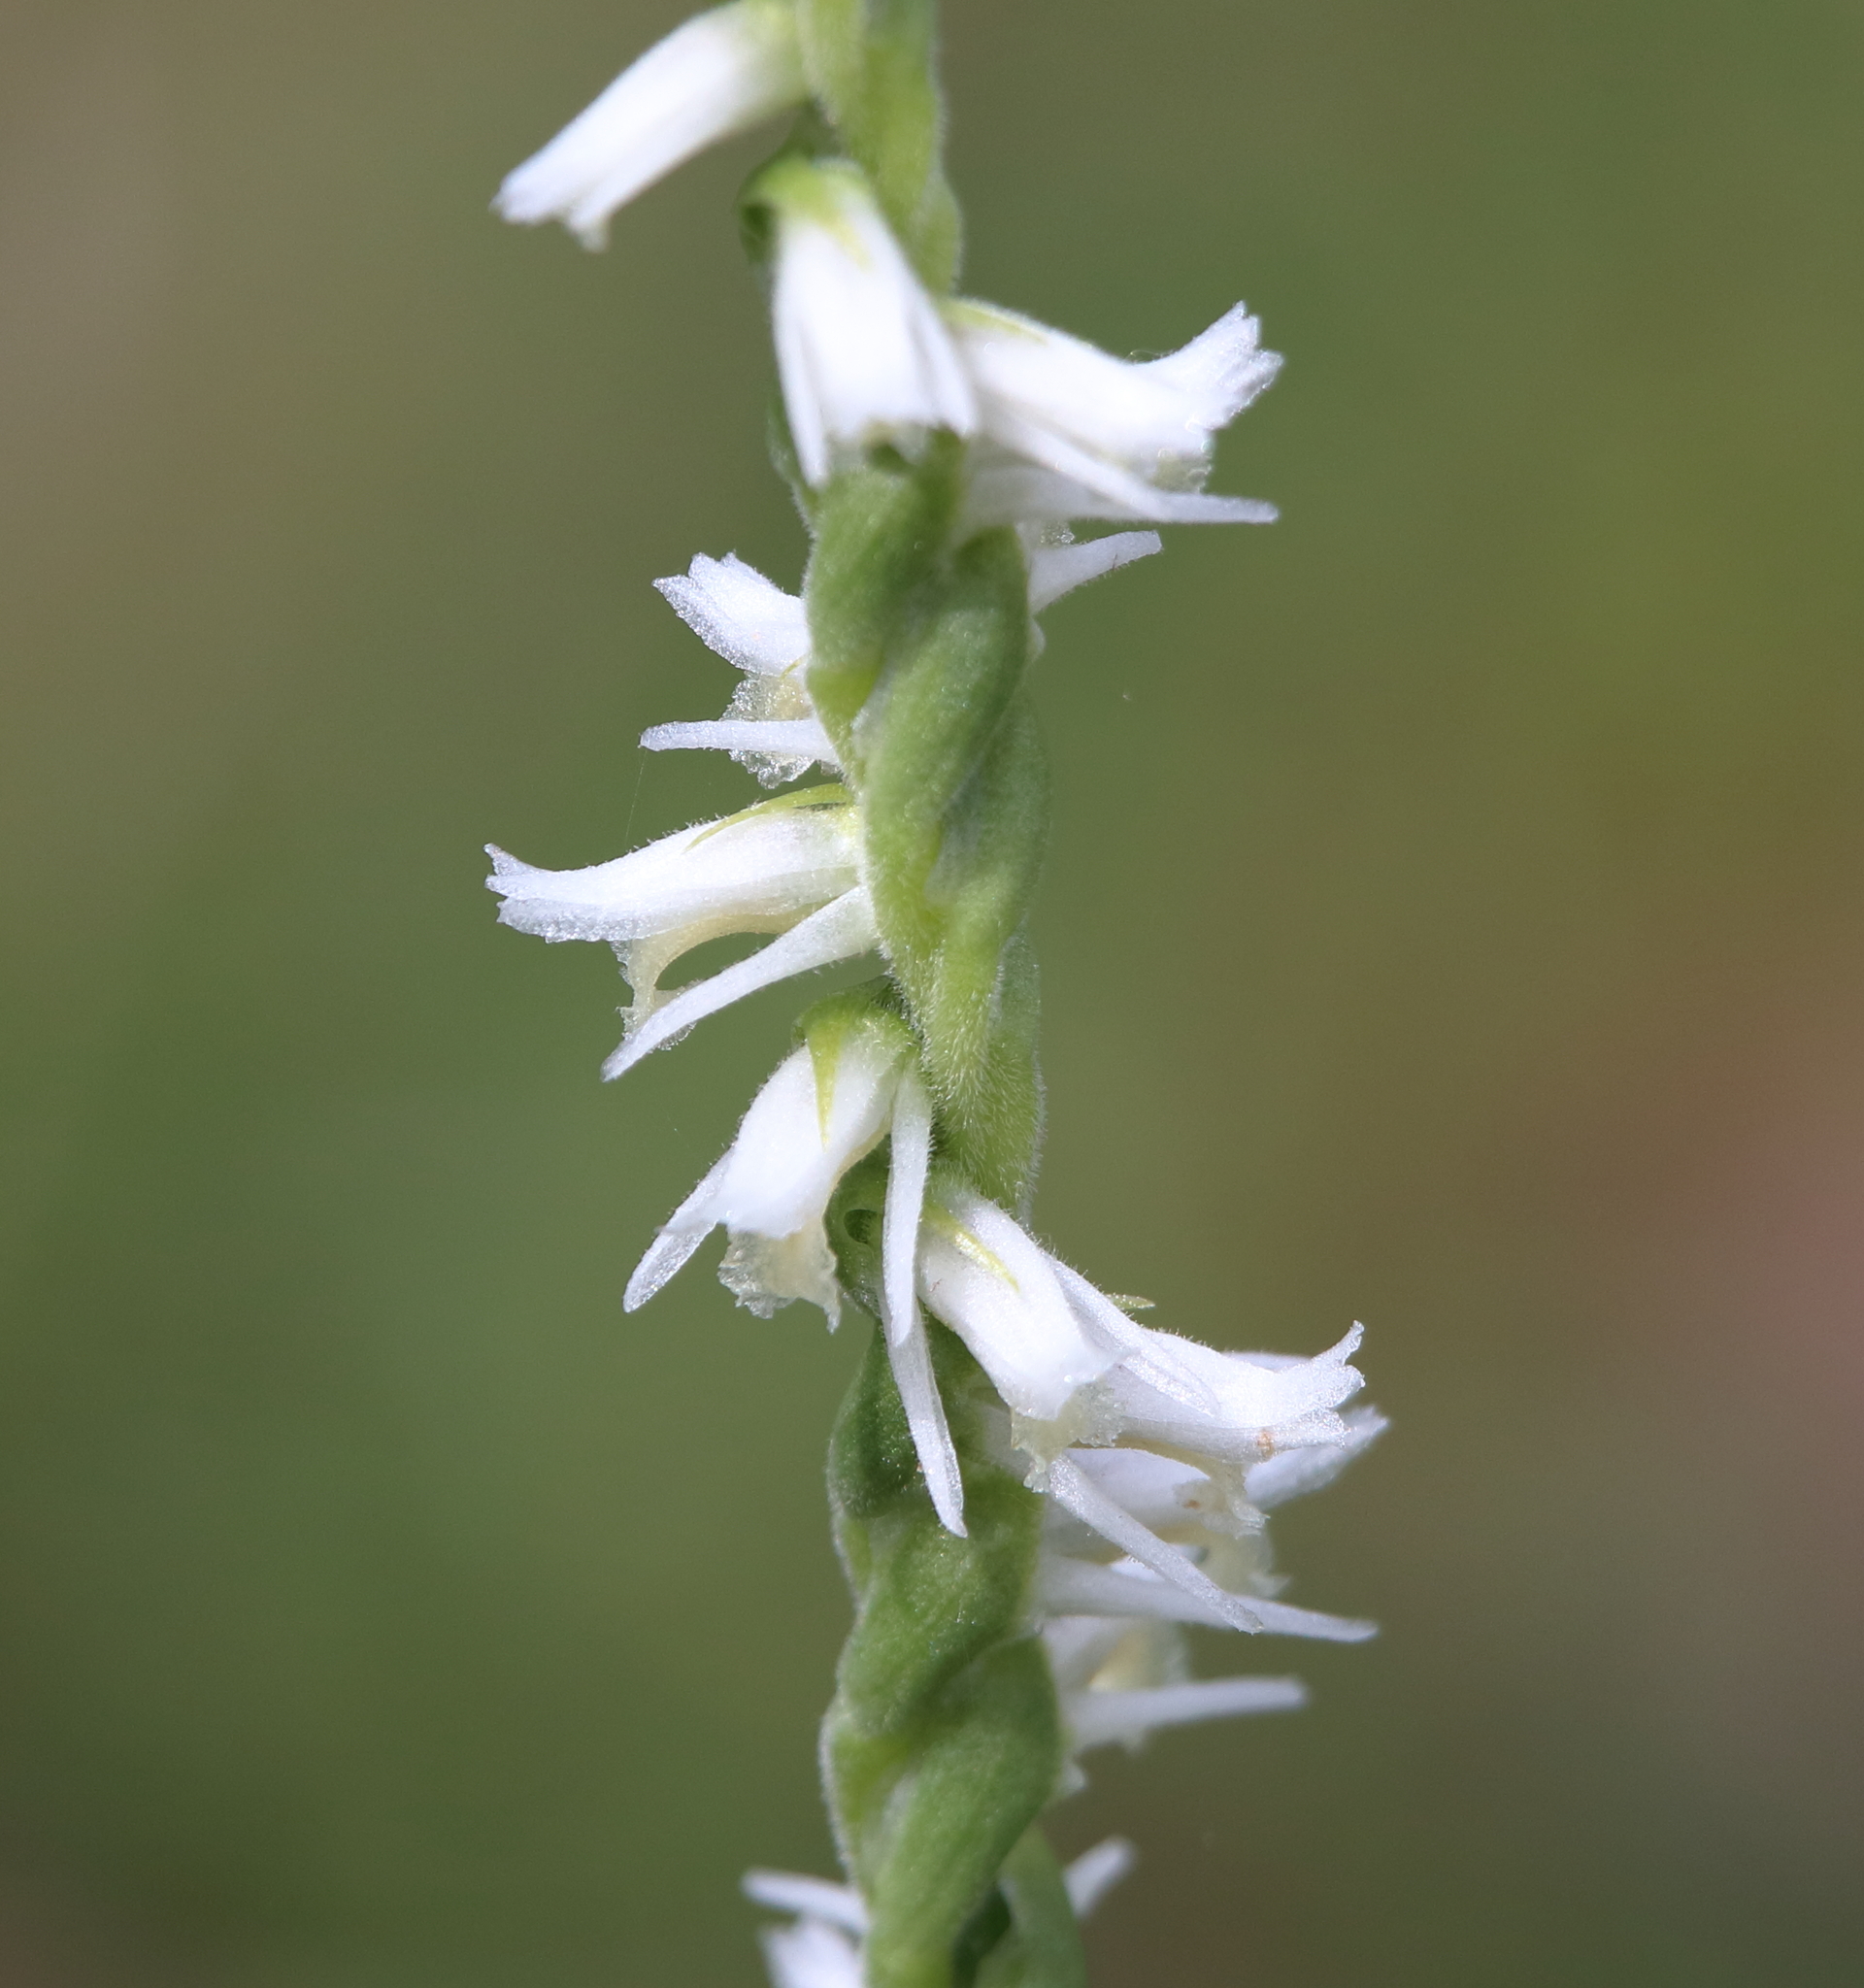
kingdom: Plantae
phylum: Tracheophyta
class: Liliopsida
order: Asparagales
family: Orchidaceae
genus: Spiranthes
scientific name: Spiranthes vernalis
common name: Spring ladies'-tresses
